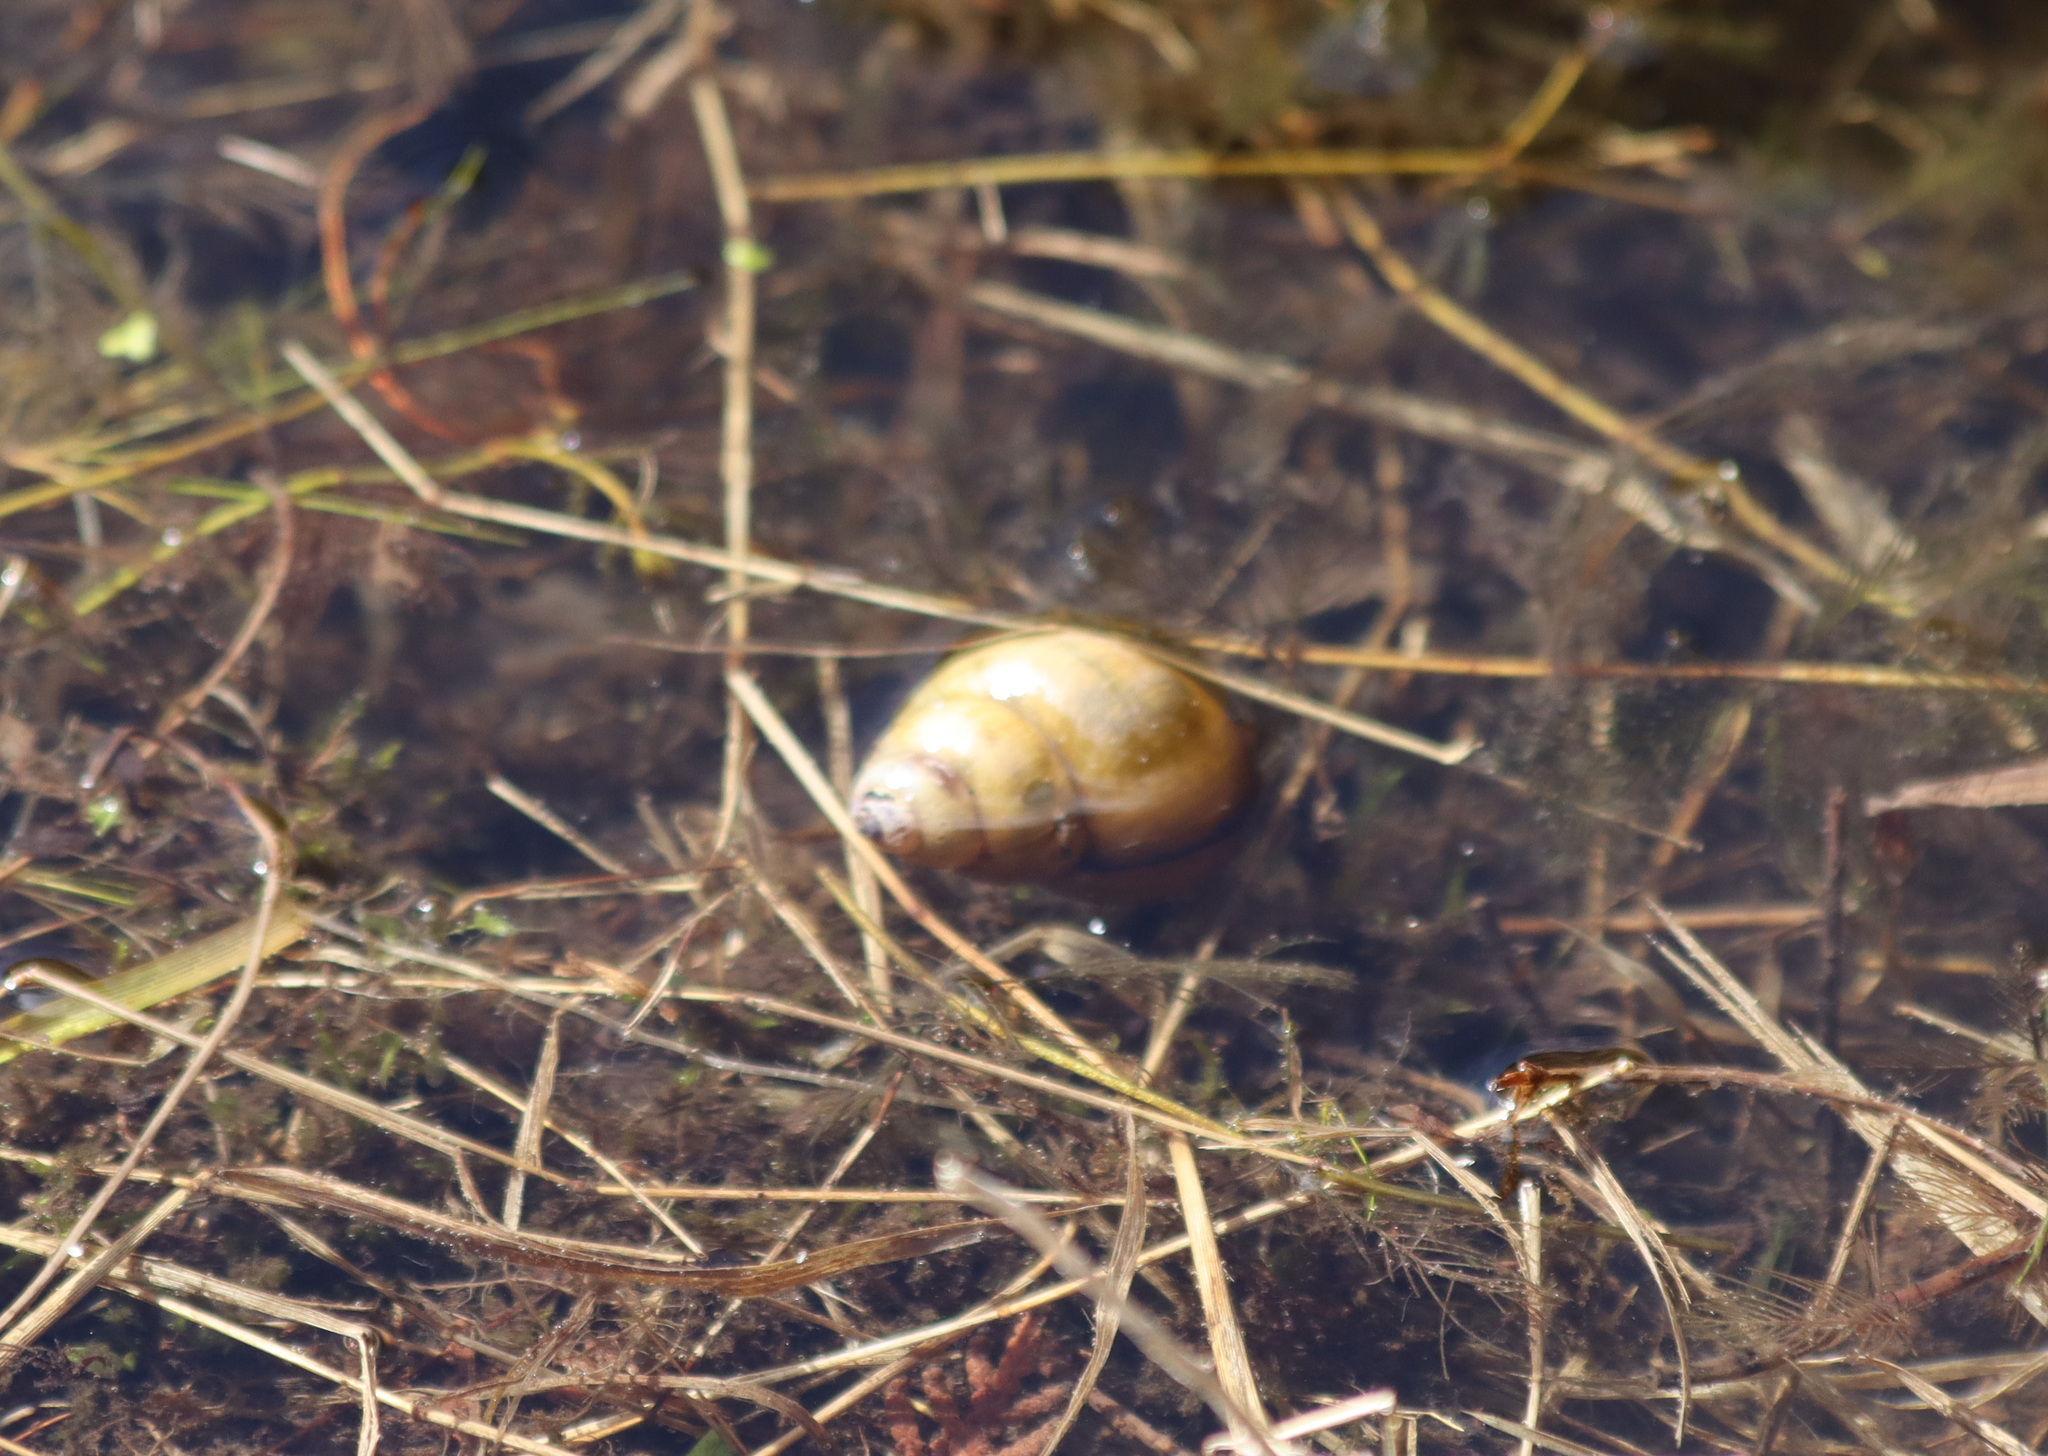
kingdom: Animalia
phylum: Mollusca
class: Gastropoda
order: Architaenioglossa
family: Viviparidae
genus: Cipangopaludina
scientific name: Cipangopaludina chinensis
